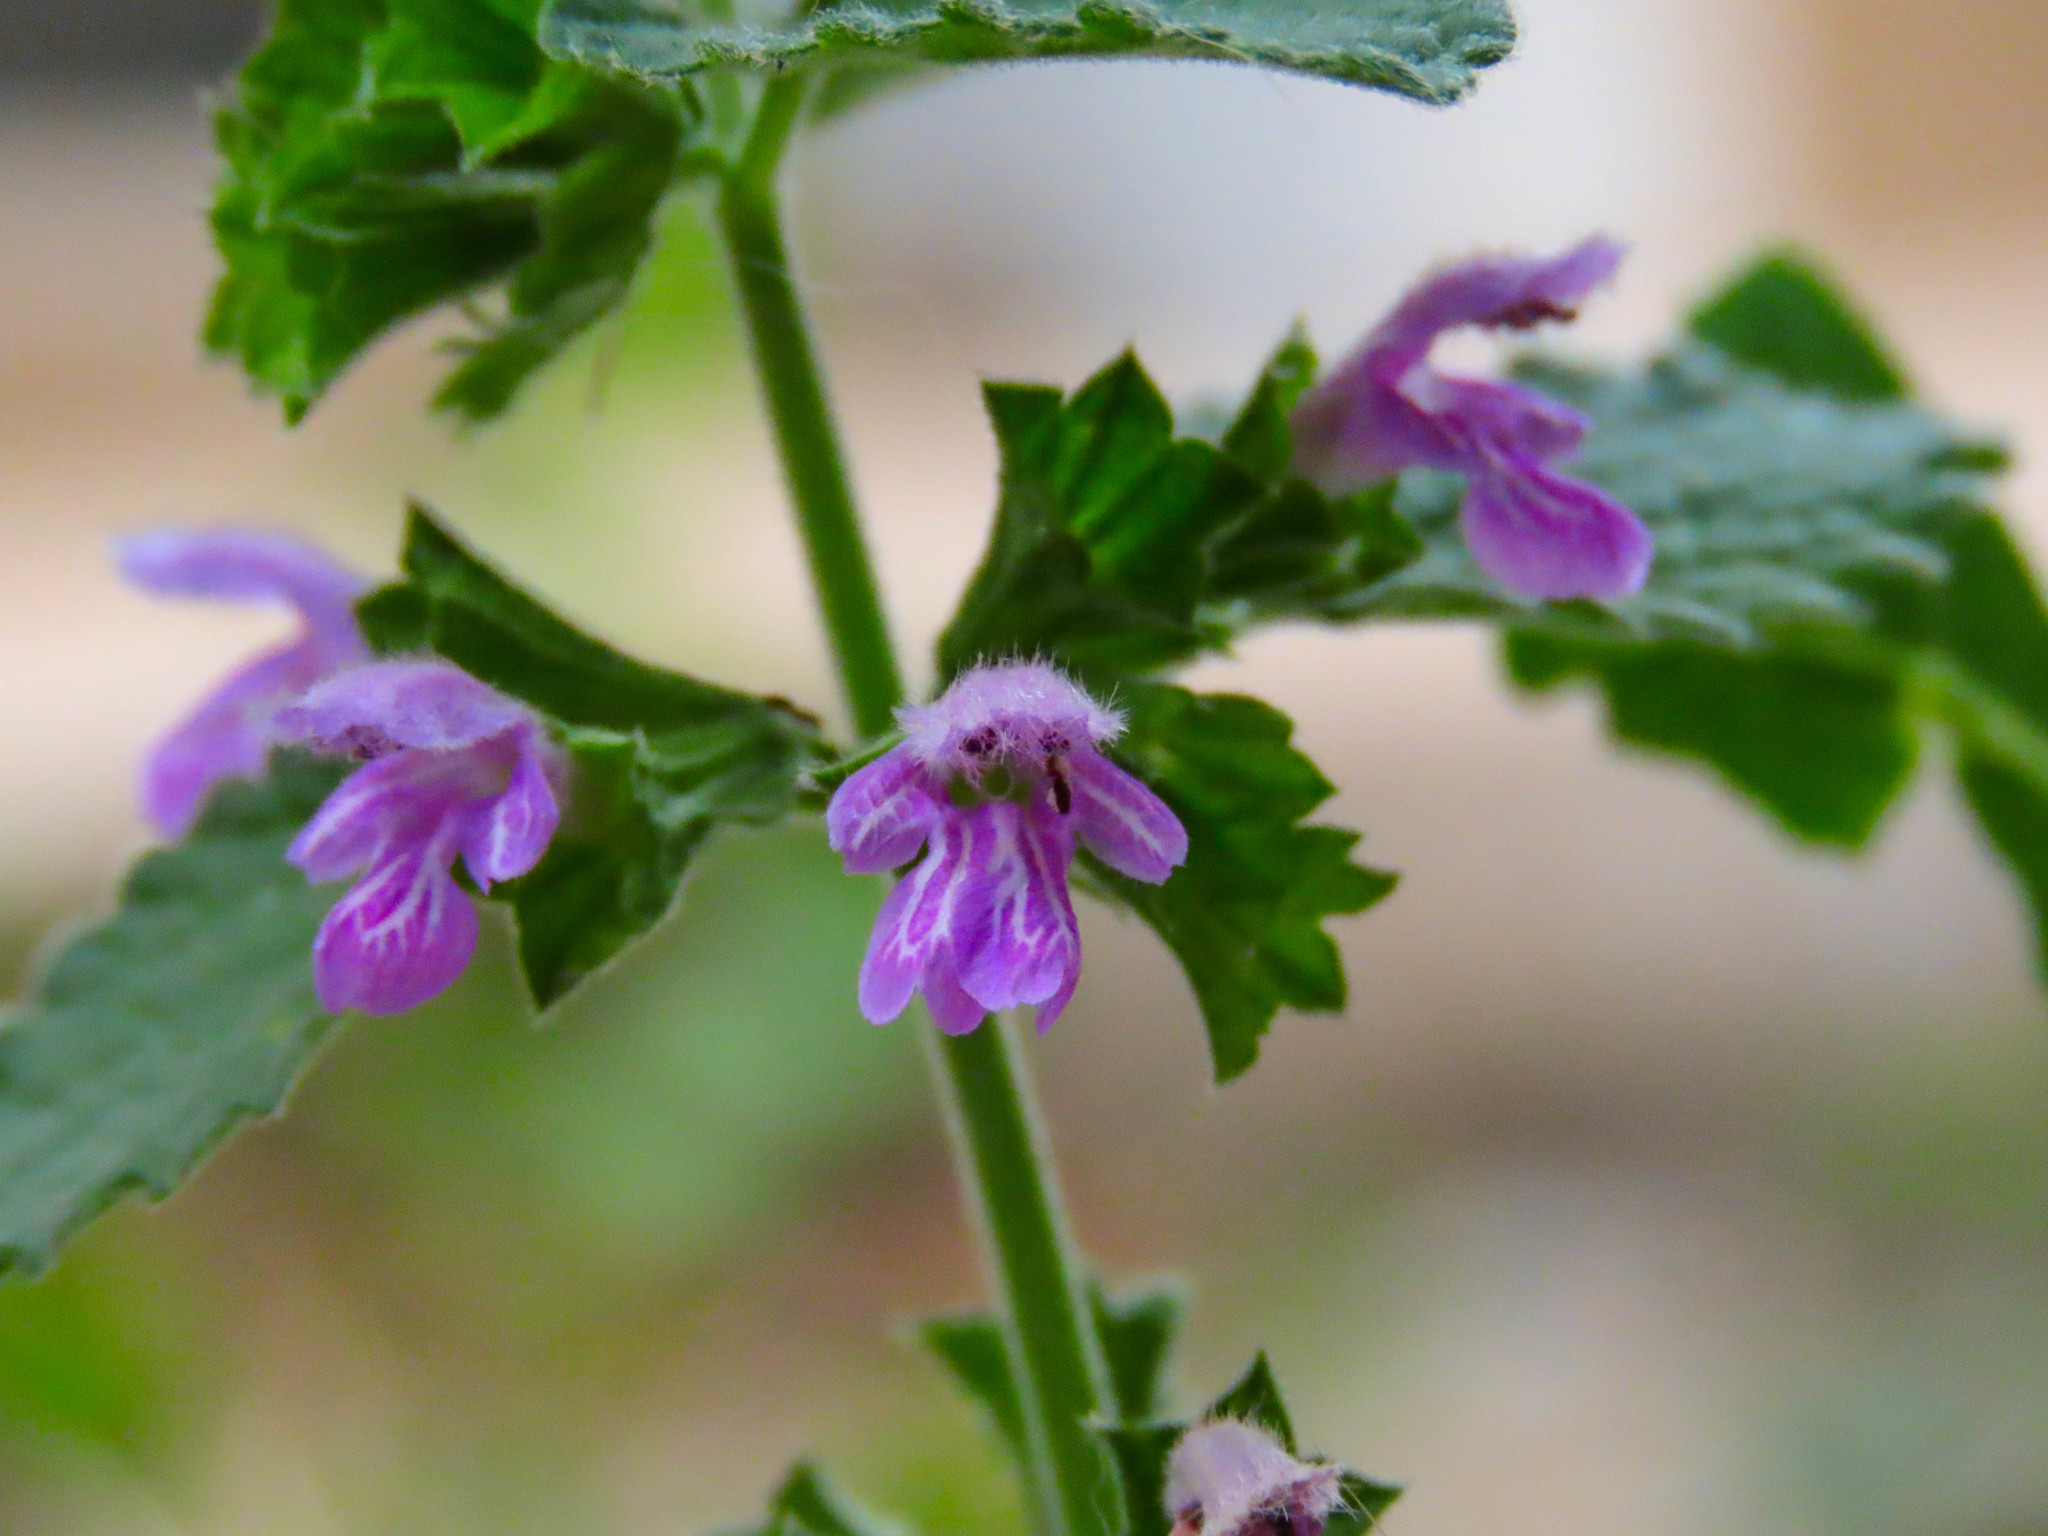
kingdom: Plantae
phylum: Tracheophyta
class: Magnoliopsida
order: Lamiales
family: Lamiaceae
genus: Ballota
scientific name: Ballota nigra
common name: Black horehound
